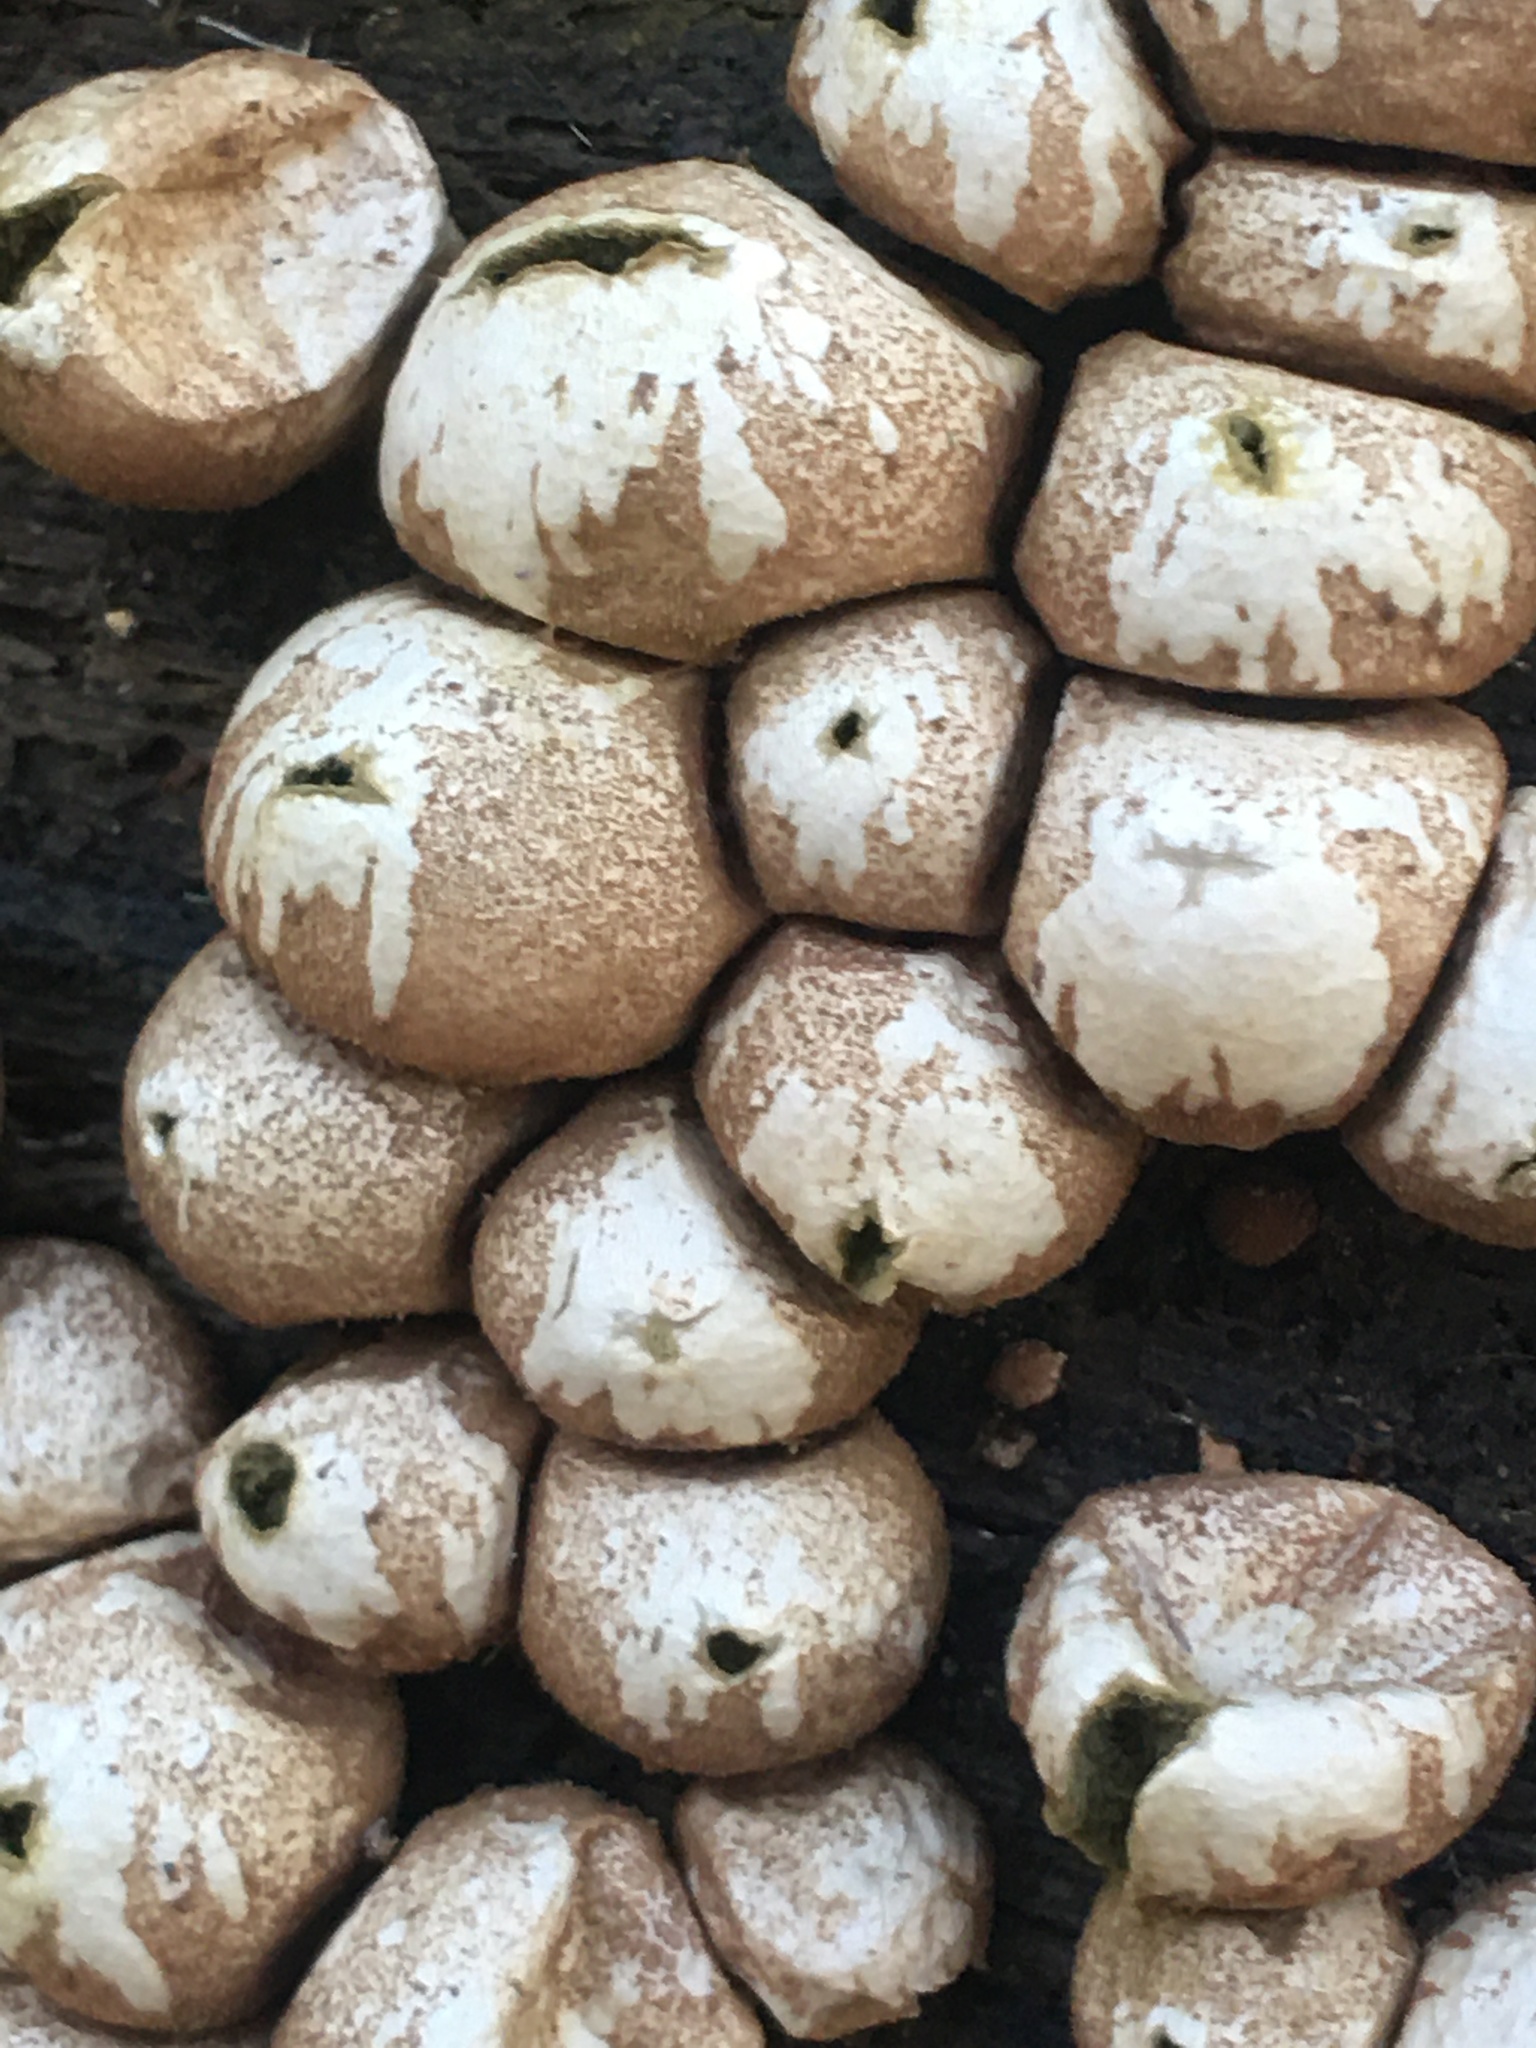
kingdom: Fungi
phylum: Basidiomycota
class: Agaricomycetes
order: Agaricales
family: Lycoperdaceae
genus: Apioperdon
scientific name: Apioperdon pyriforme
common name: Pear-shaped puffball
